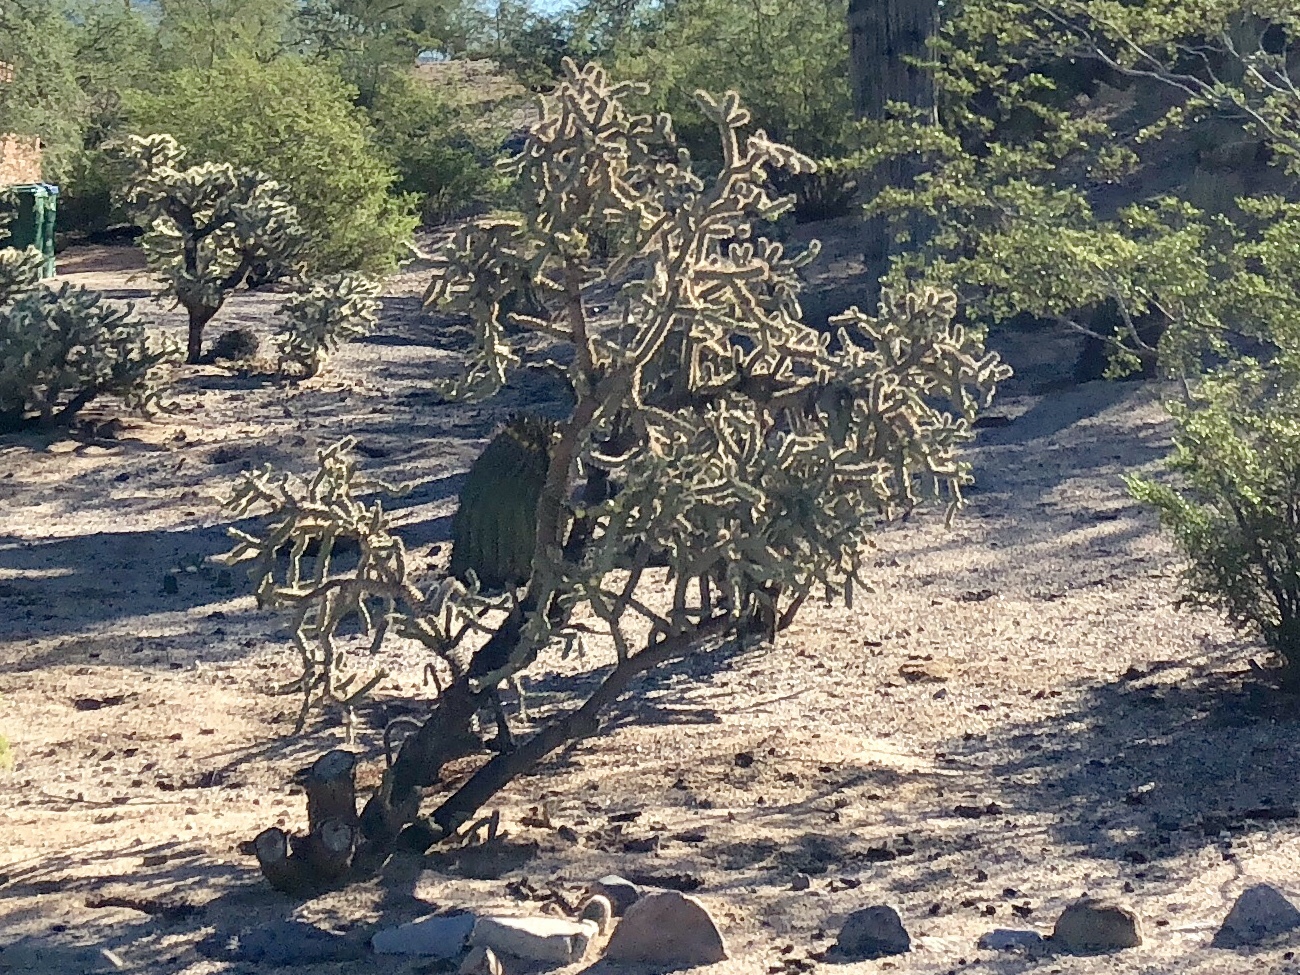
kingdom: Plantae
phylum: Tracheophyta
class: Magnoliopsida
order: Caryophyllales
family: Cactaceae
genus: Cylindropuntia
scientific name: Cylindropuntia imbricata
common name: Candelabrum cactus
